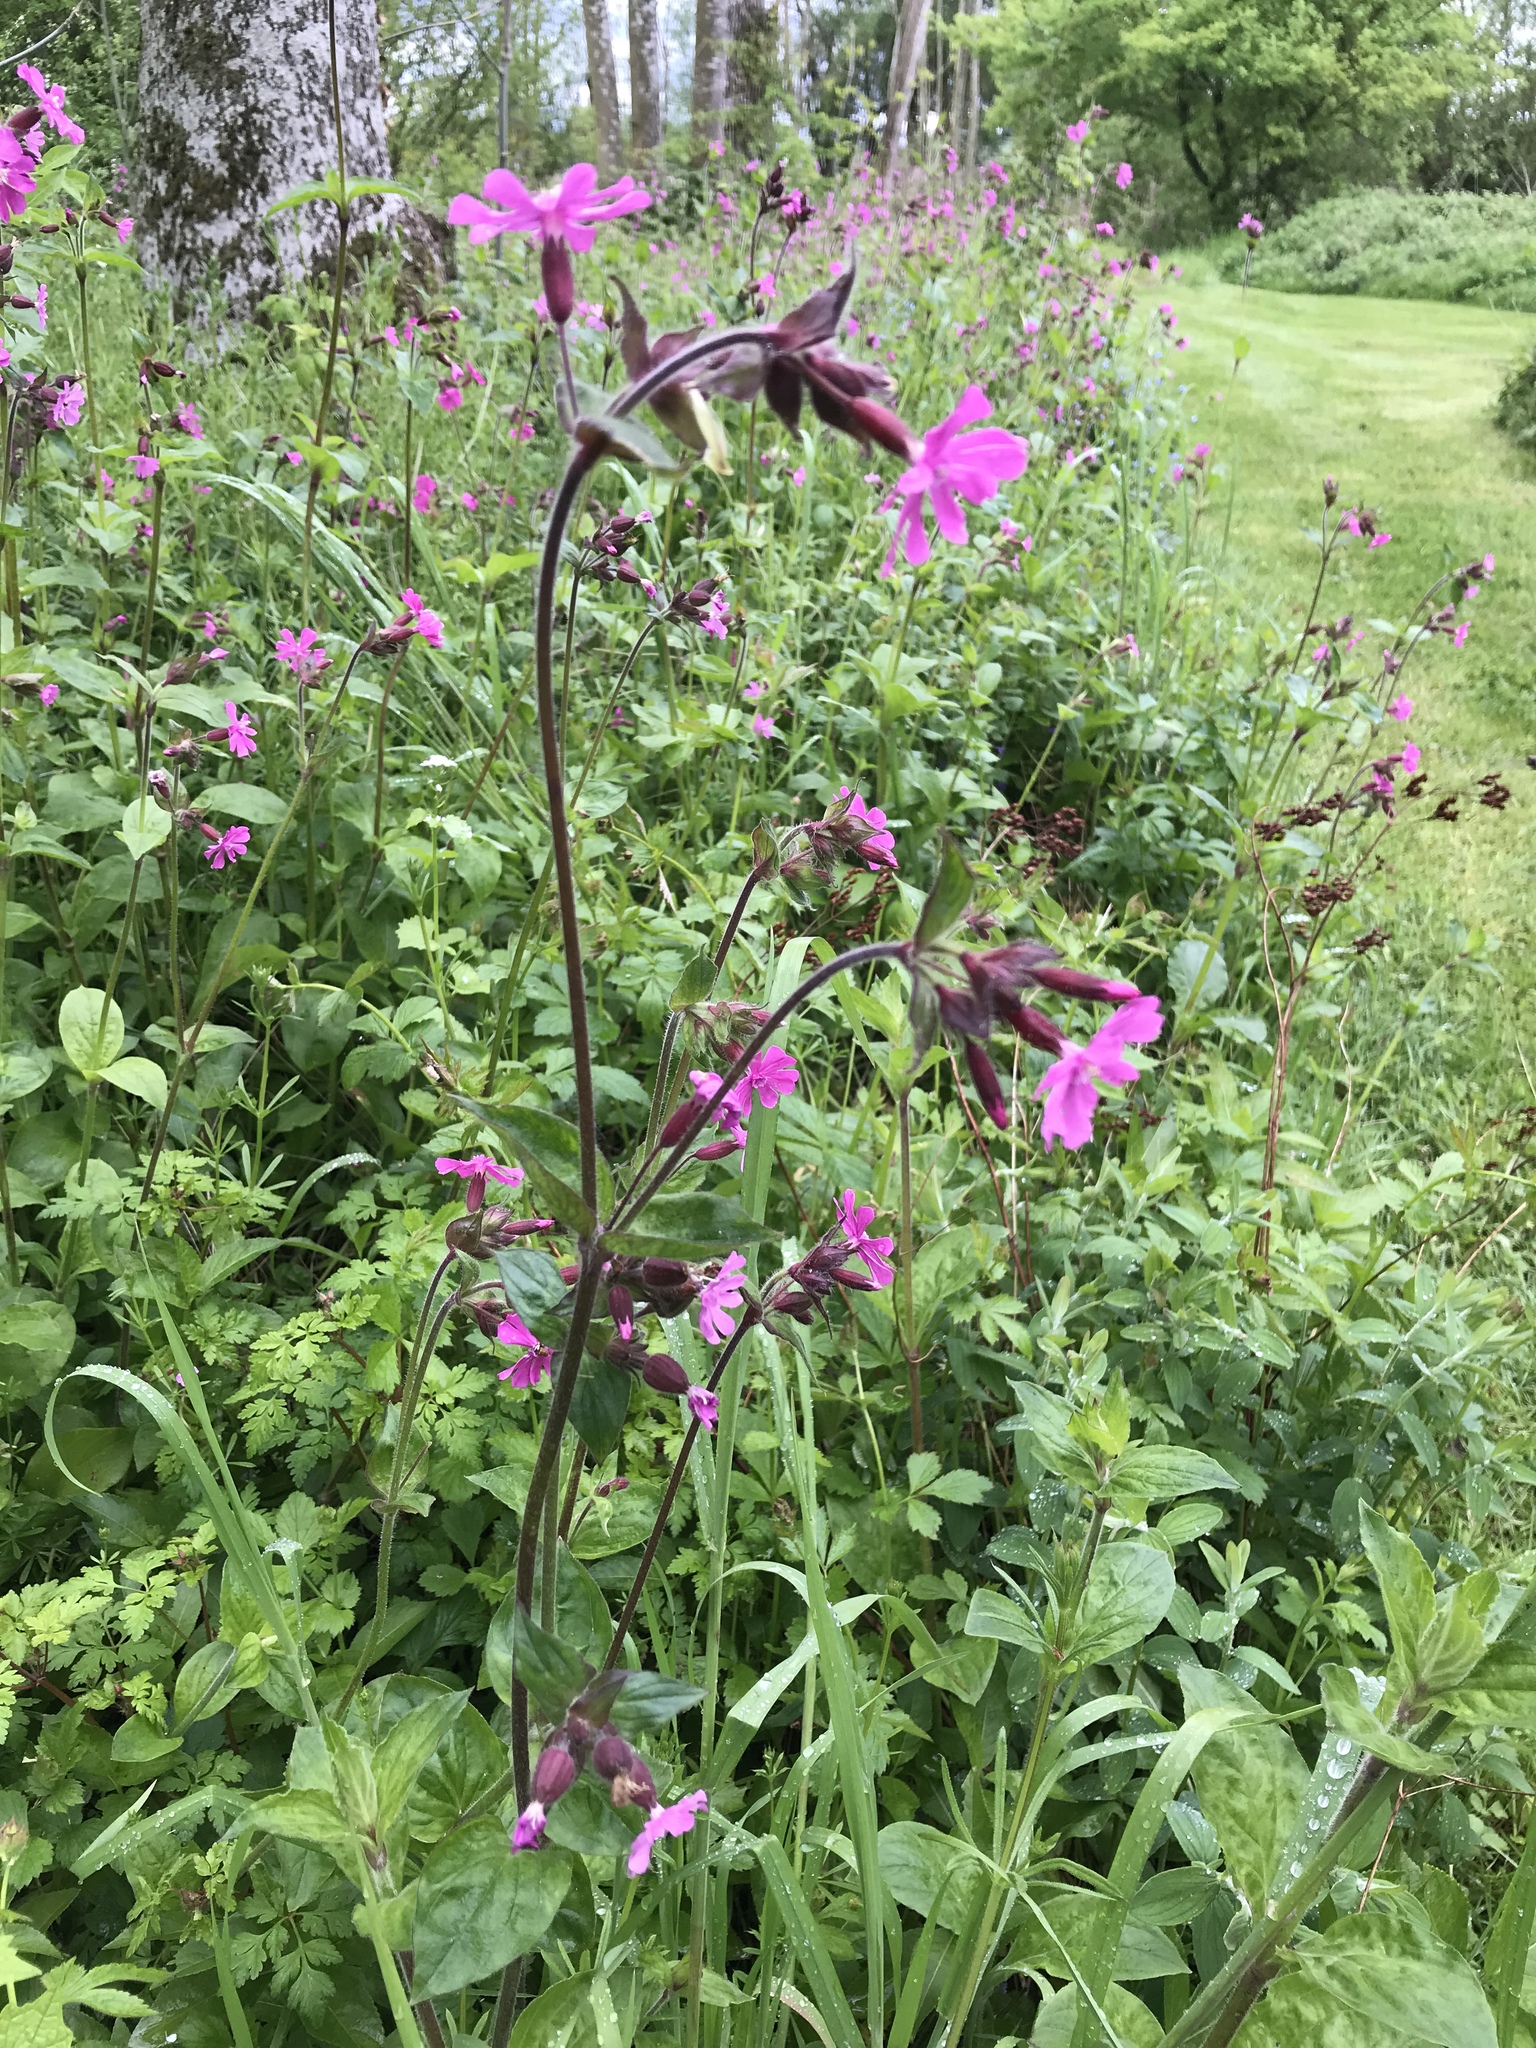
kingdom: Plantae
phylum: Tracheophyta
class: Magnoliopsida
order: Caryophyllales
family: Caryophyllaceae
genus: Silene
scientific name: Silene dioica
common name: Red campion
